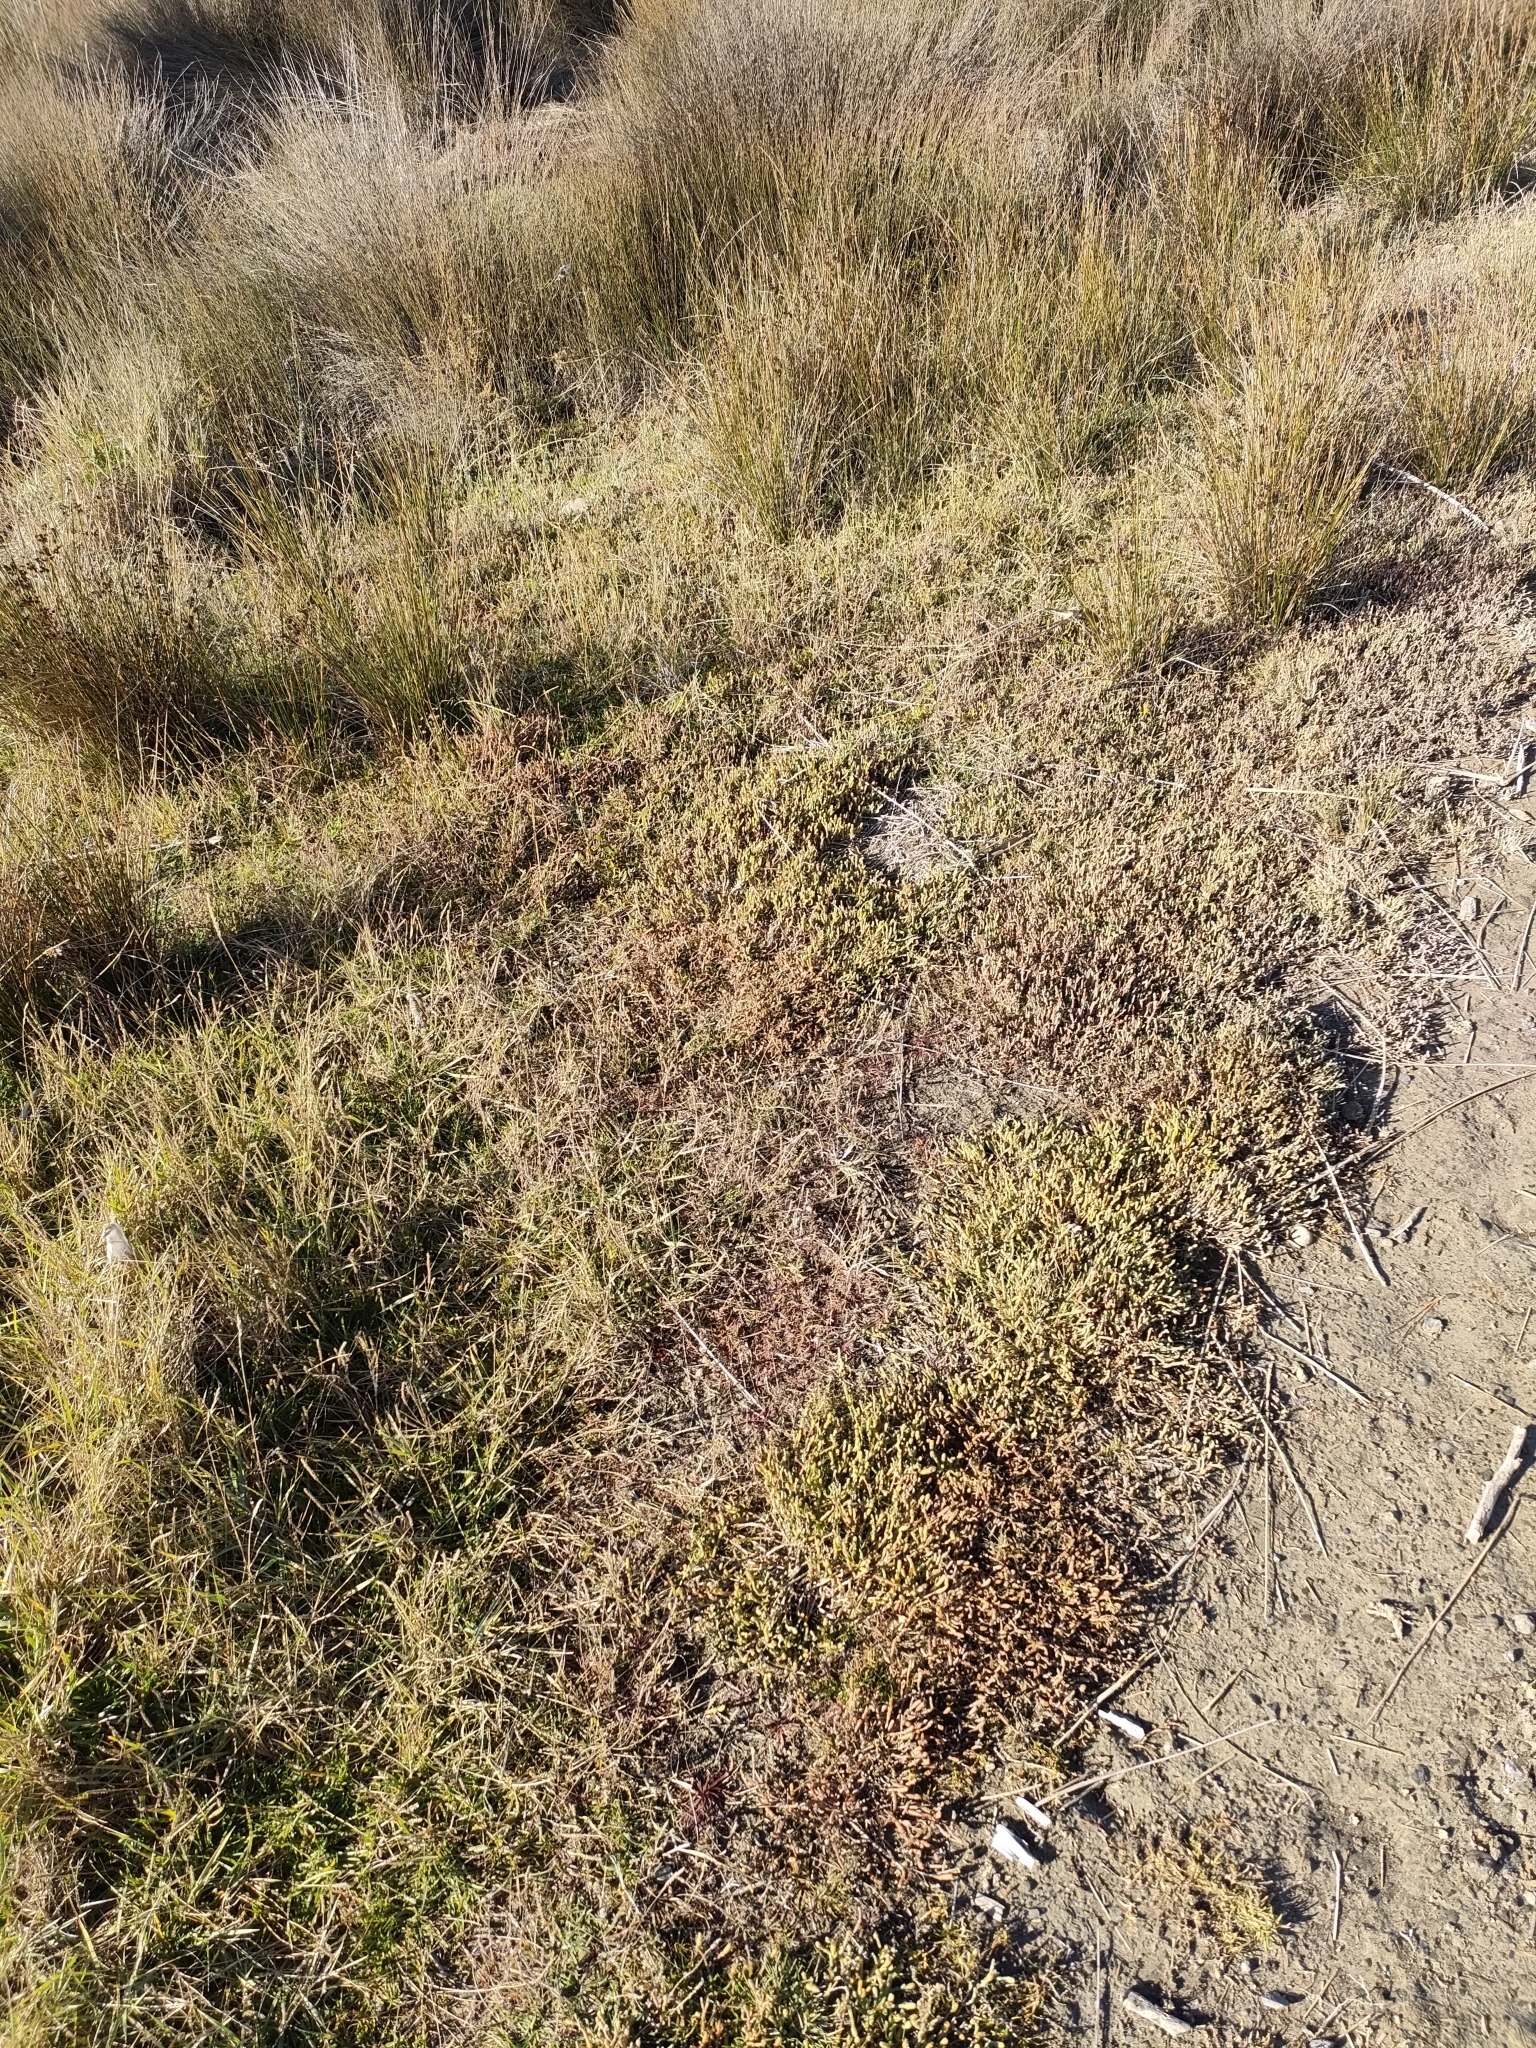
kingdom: Plantae
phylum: Tracheophyta
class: Magnoliopsida
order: Caryophyllales
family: Amaranthaceae
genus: Salicornia
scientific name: Salicornia quinqueflora
